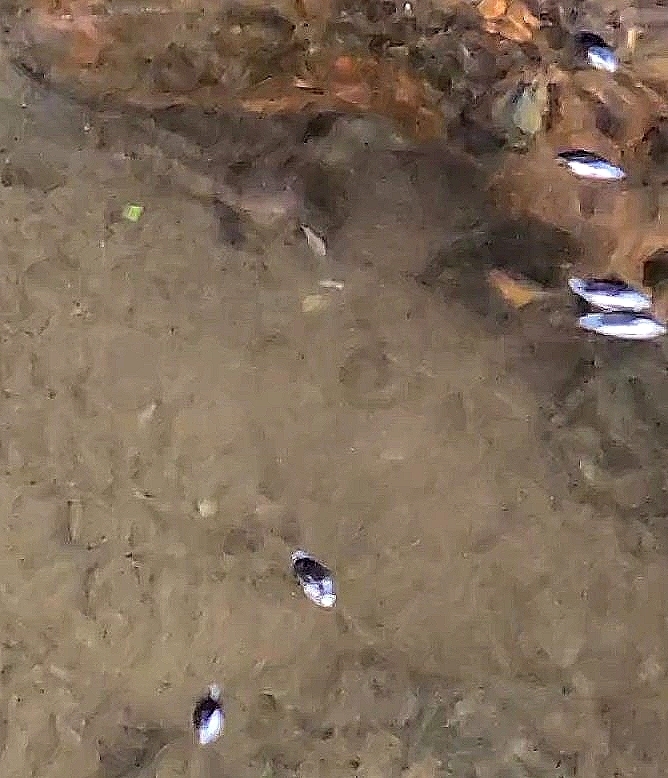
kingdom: Animalia
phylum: Arthropoda
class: Insecta
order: Coleoptera
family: Gyrinidae
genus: Gyrinus
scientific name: Gyrinus
